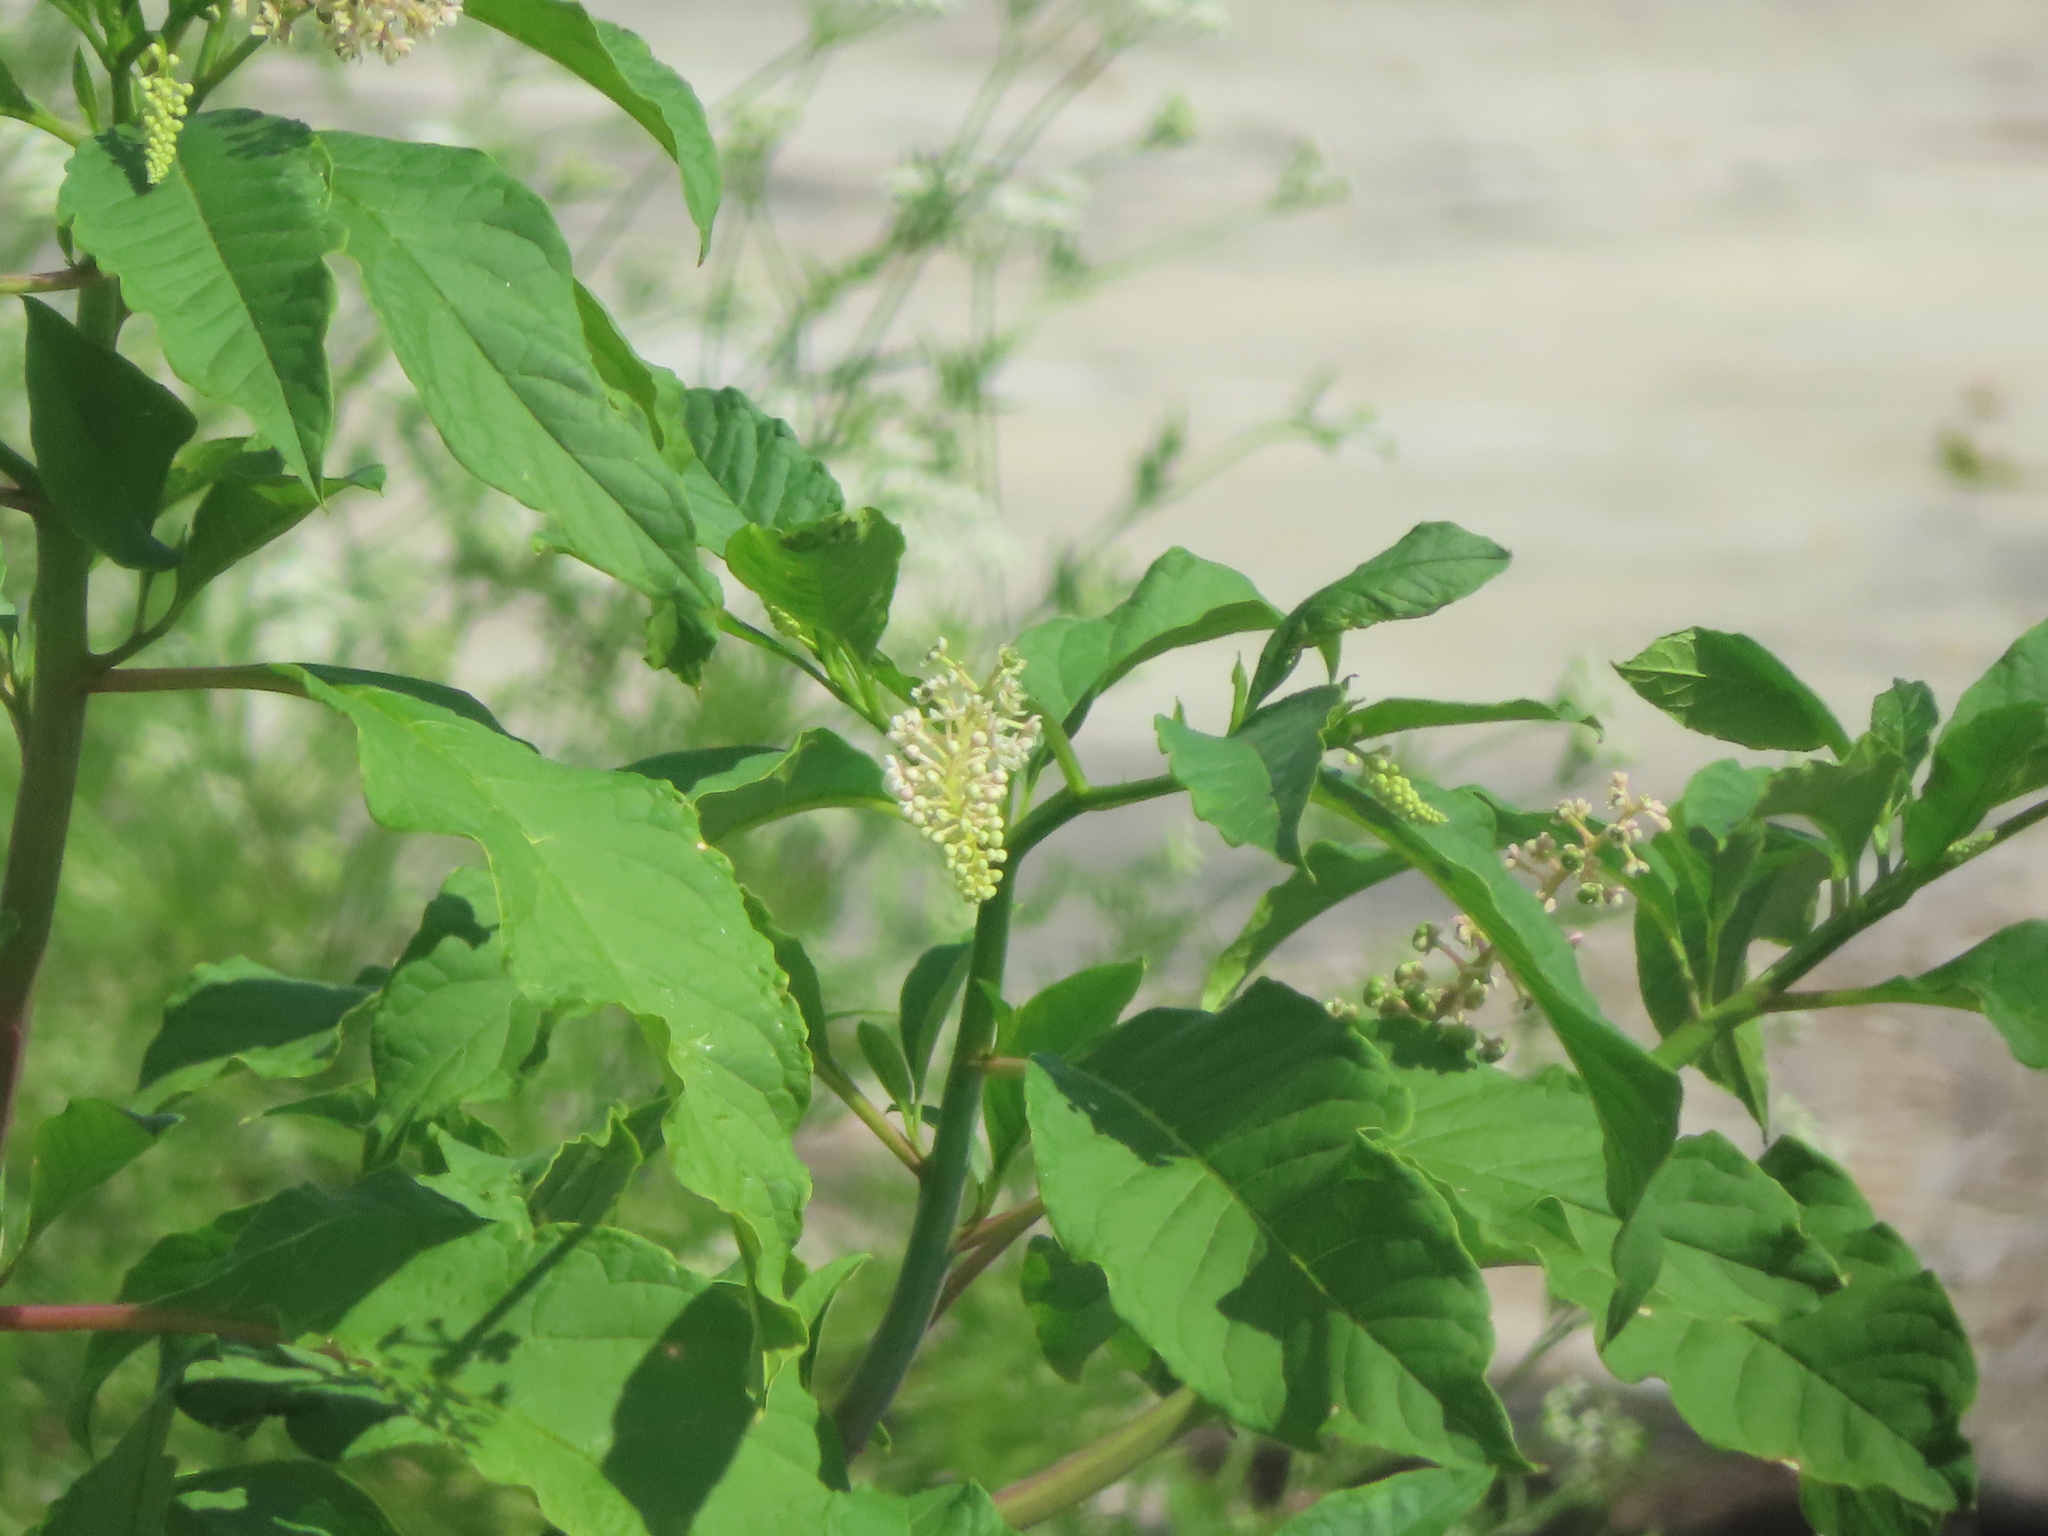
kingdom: Plantae
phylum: Tracheophyta
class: Magnoliopsida
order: Caryophyllales
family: Phytolaccaceae
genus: Phytolacca
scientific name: Phytolacca americana
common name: American pokeweed
